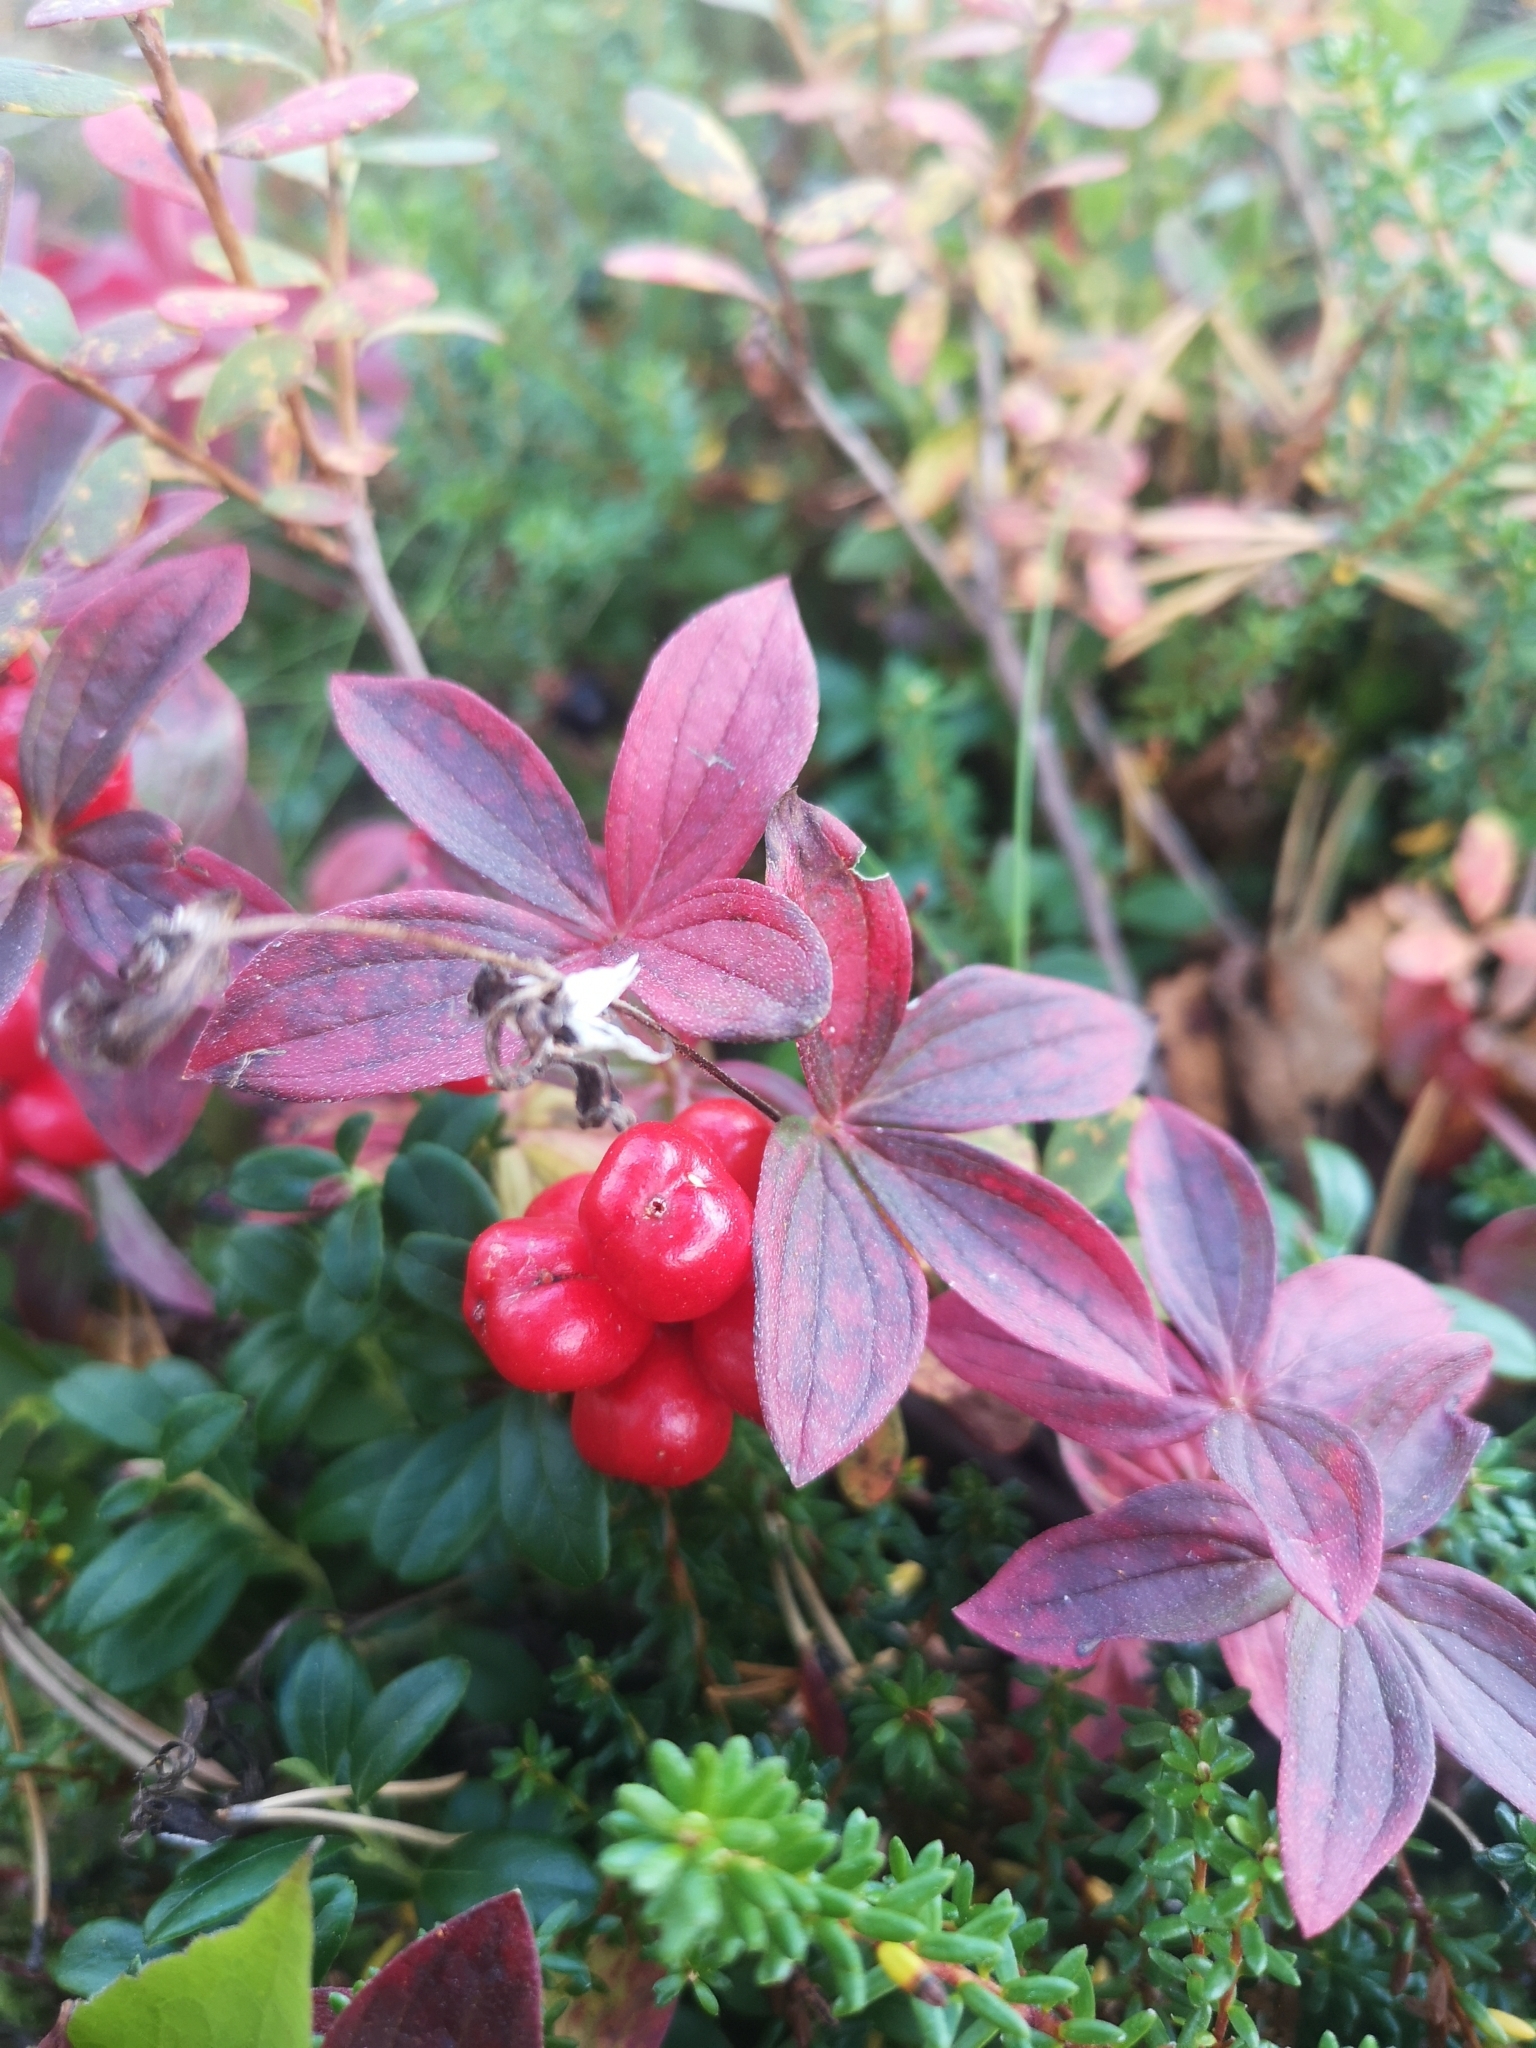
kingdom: Plantae
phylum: Tracheophyta
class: Magnoliopsida
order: Cornales
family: Cornaceae
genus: Cornus
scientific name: Cornus suecica
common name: Dwarf cornel
